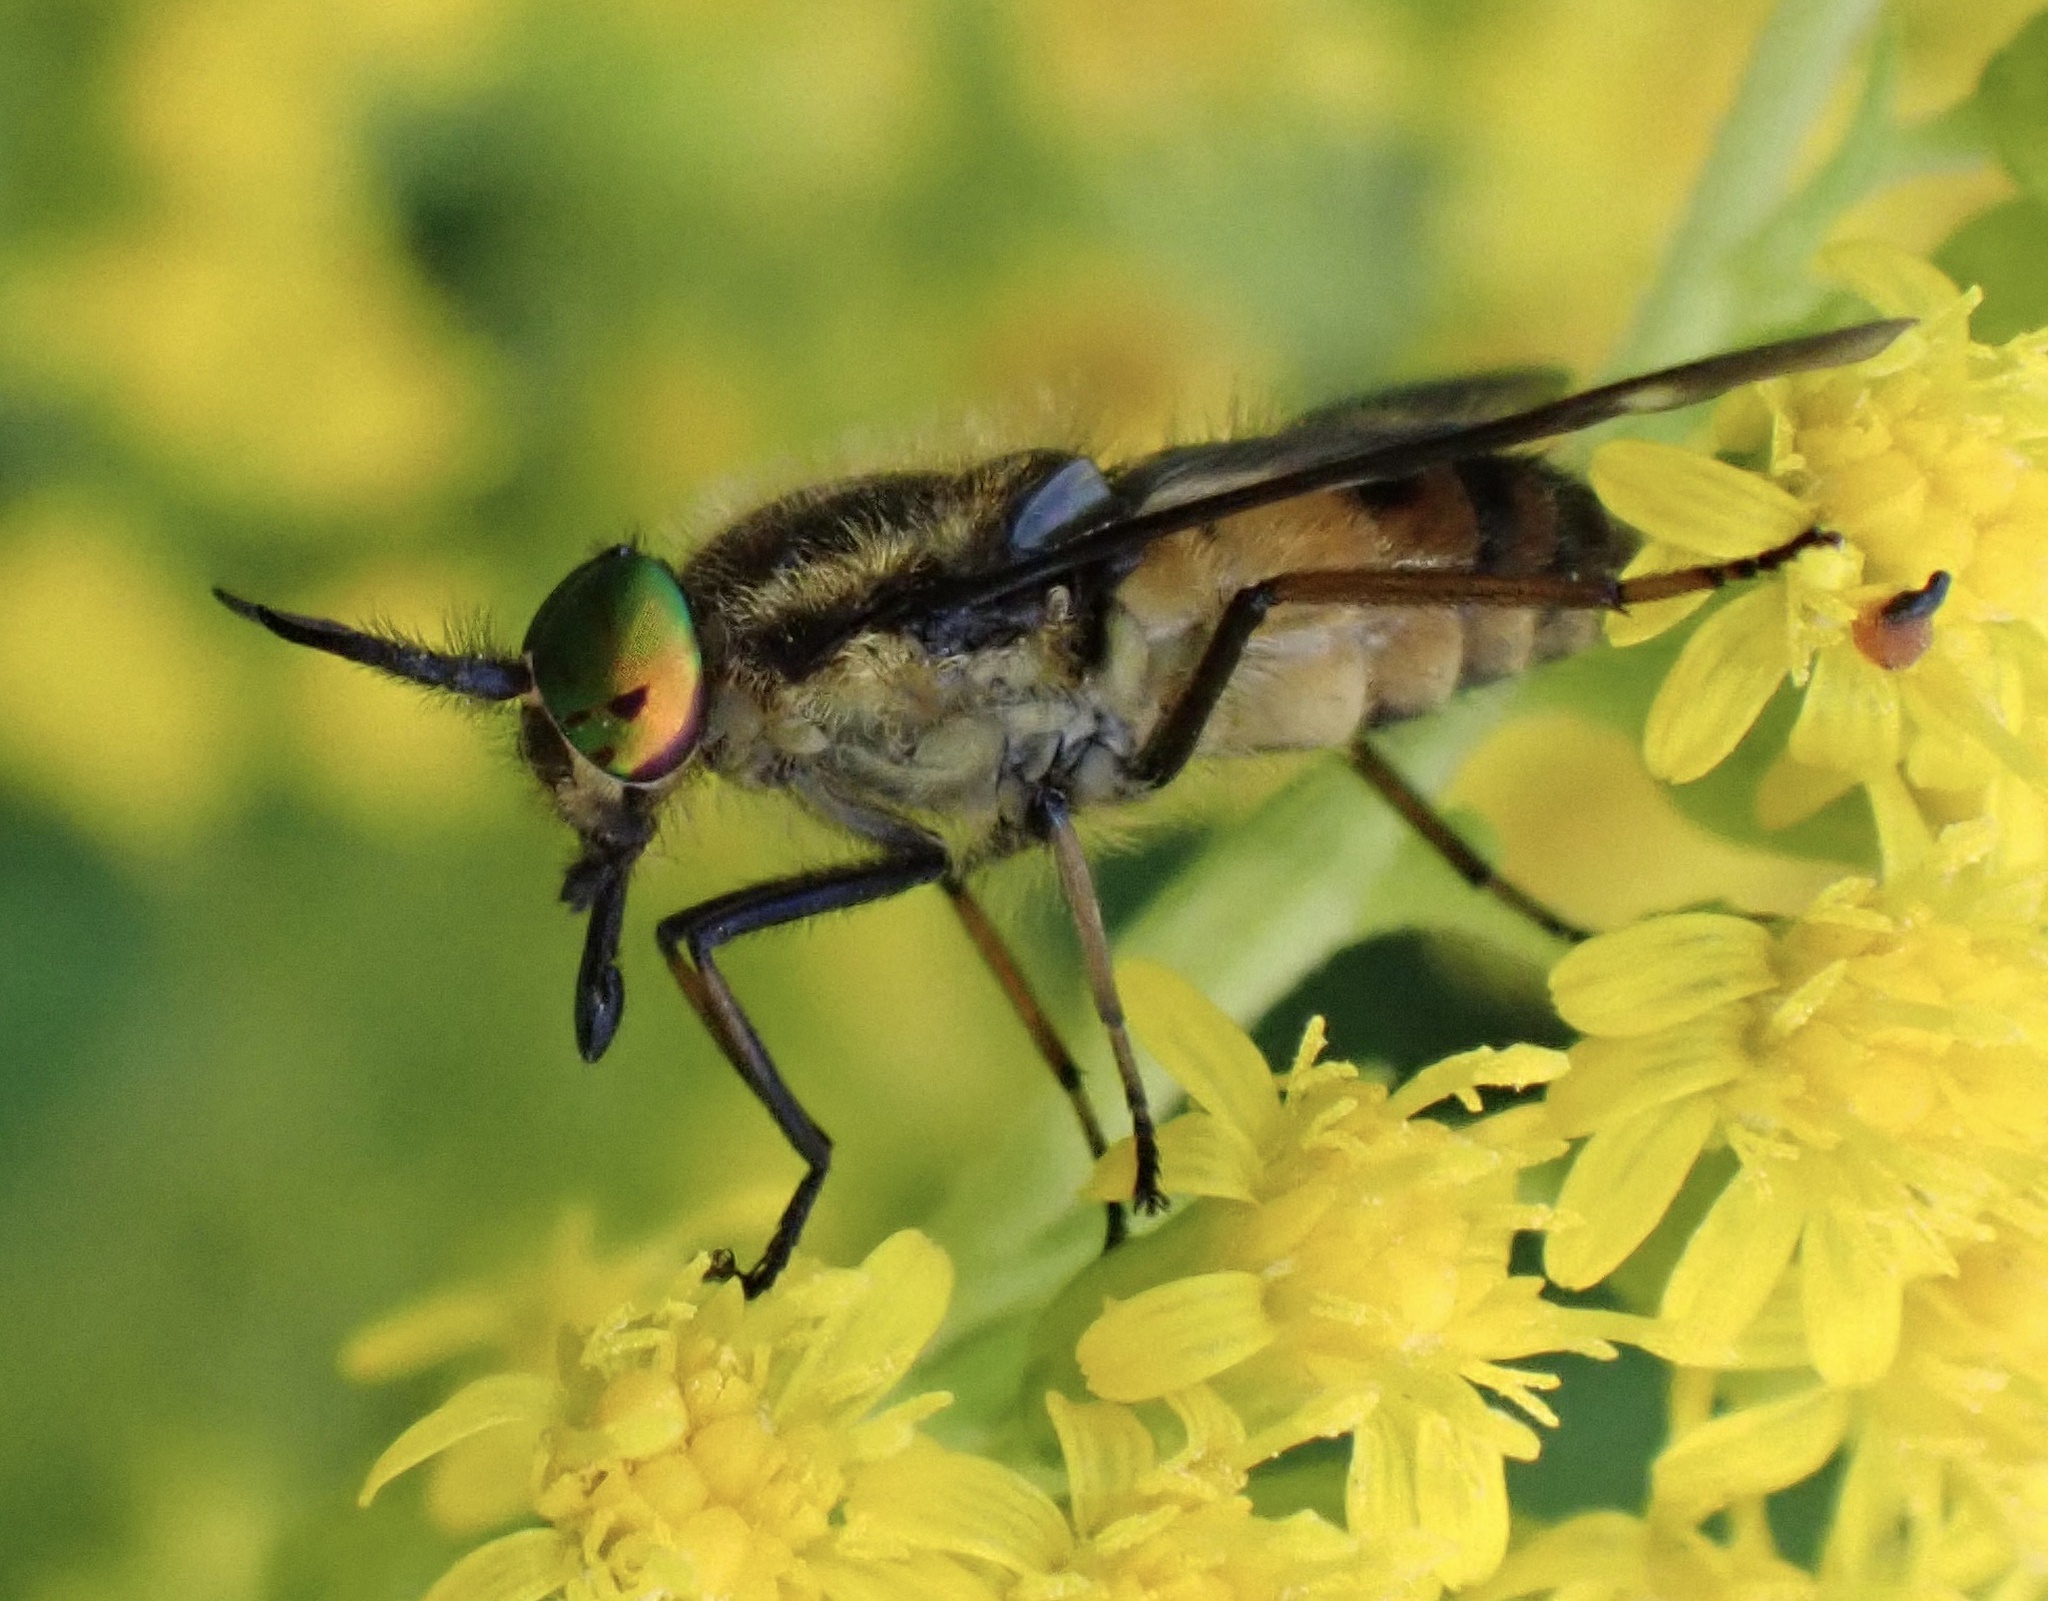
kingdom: Animalia
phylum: Arthropoda
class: Insecta
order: Diptera
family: Tabanidae
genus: Chrysops
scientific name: Chrysops relictus
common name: Twin-lobed deerfly
